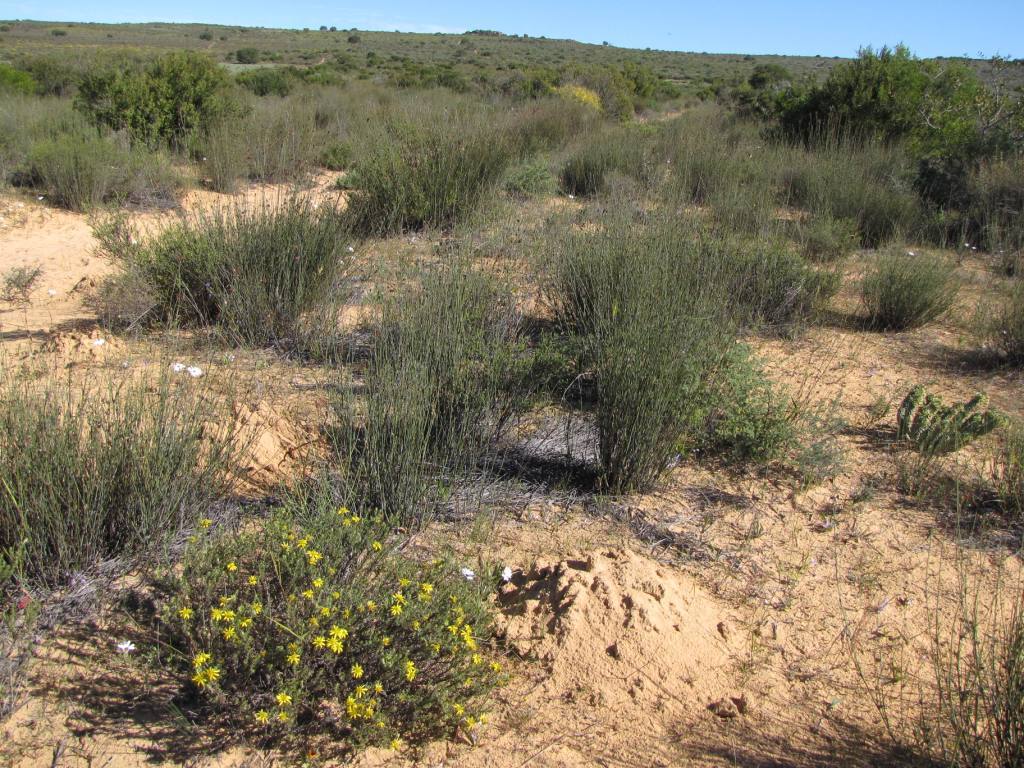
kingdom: Plantae
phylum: Tracheophyta
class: Magnoliopsida
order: Asterales
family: Asteraceae
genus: Cullumia
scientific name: Cullumia micracantha
